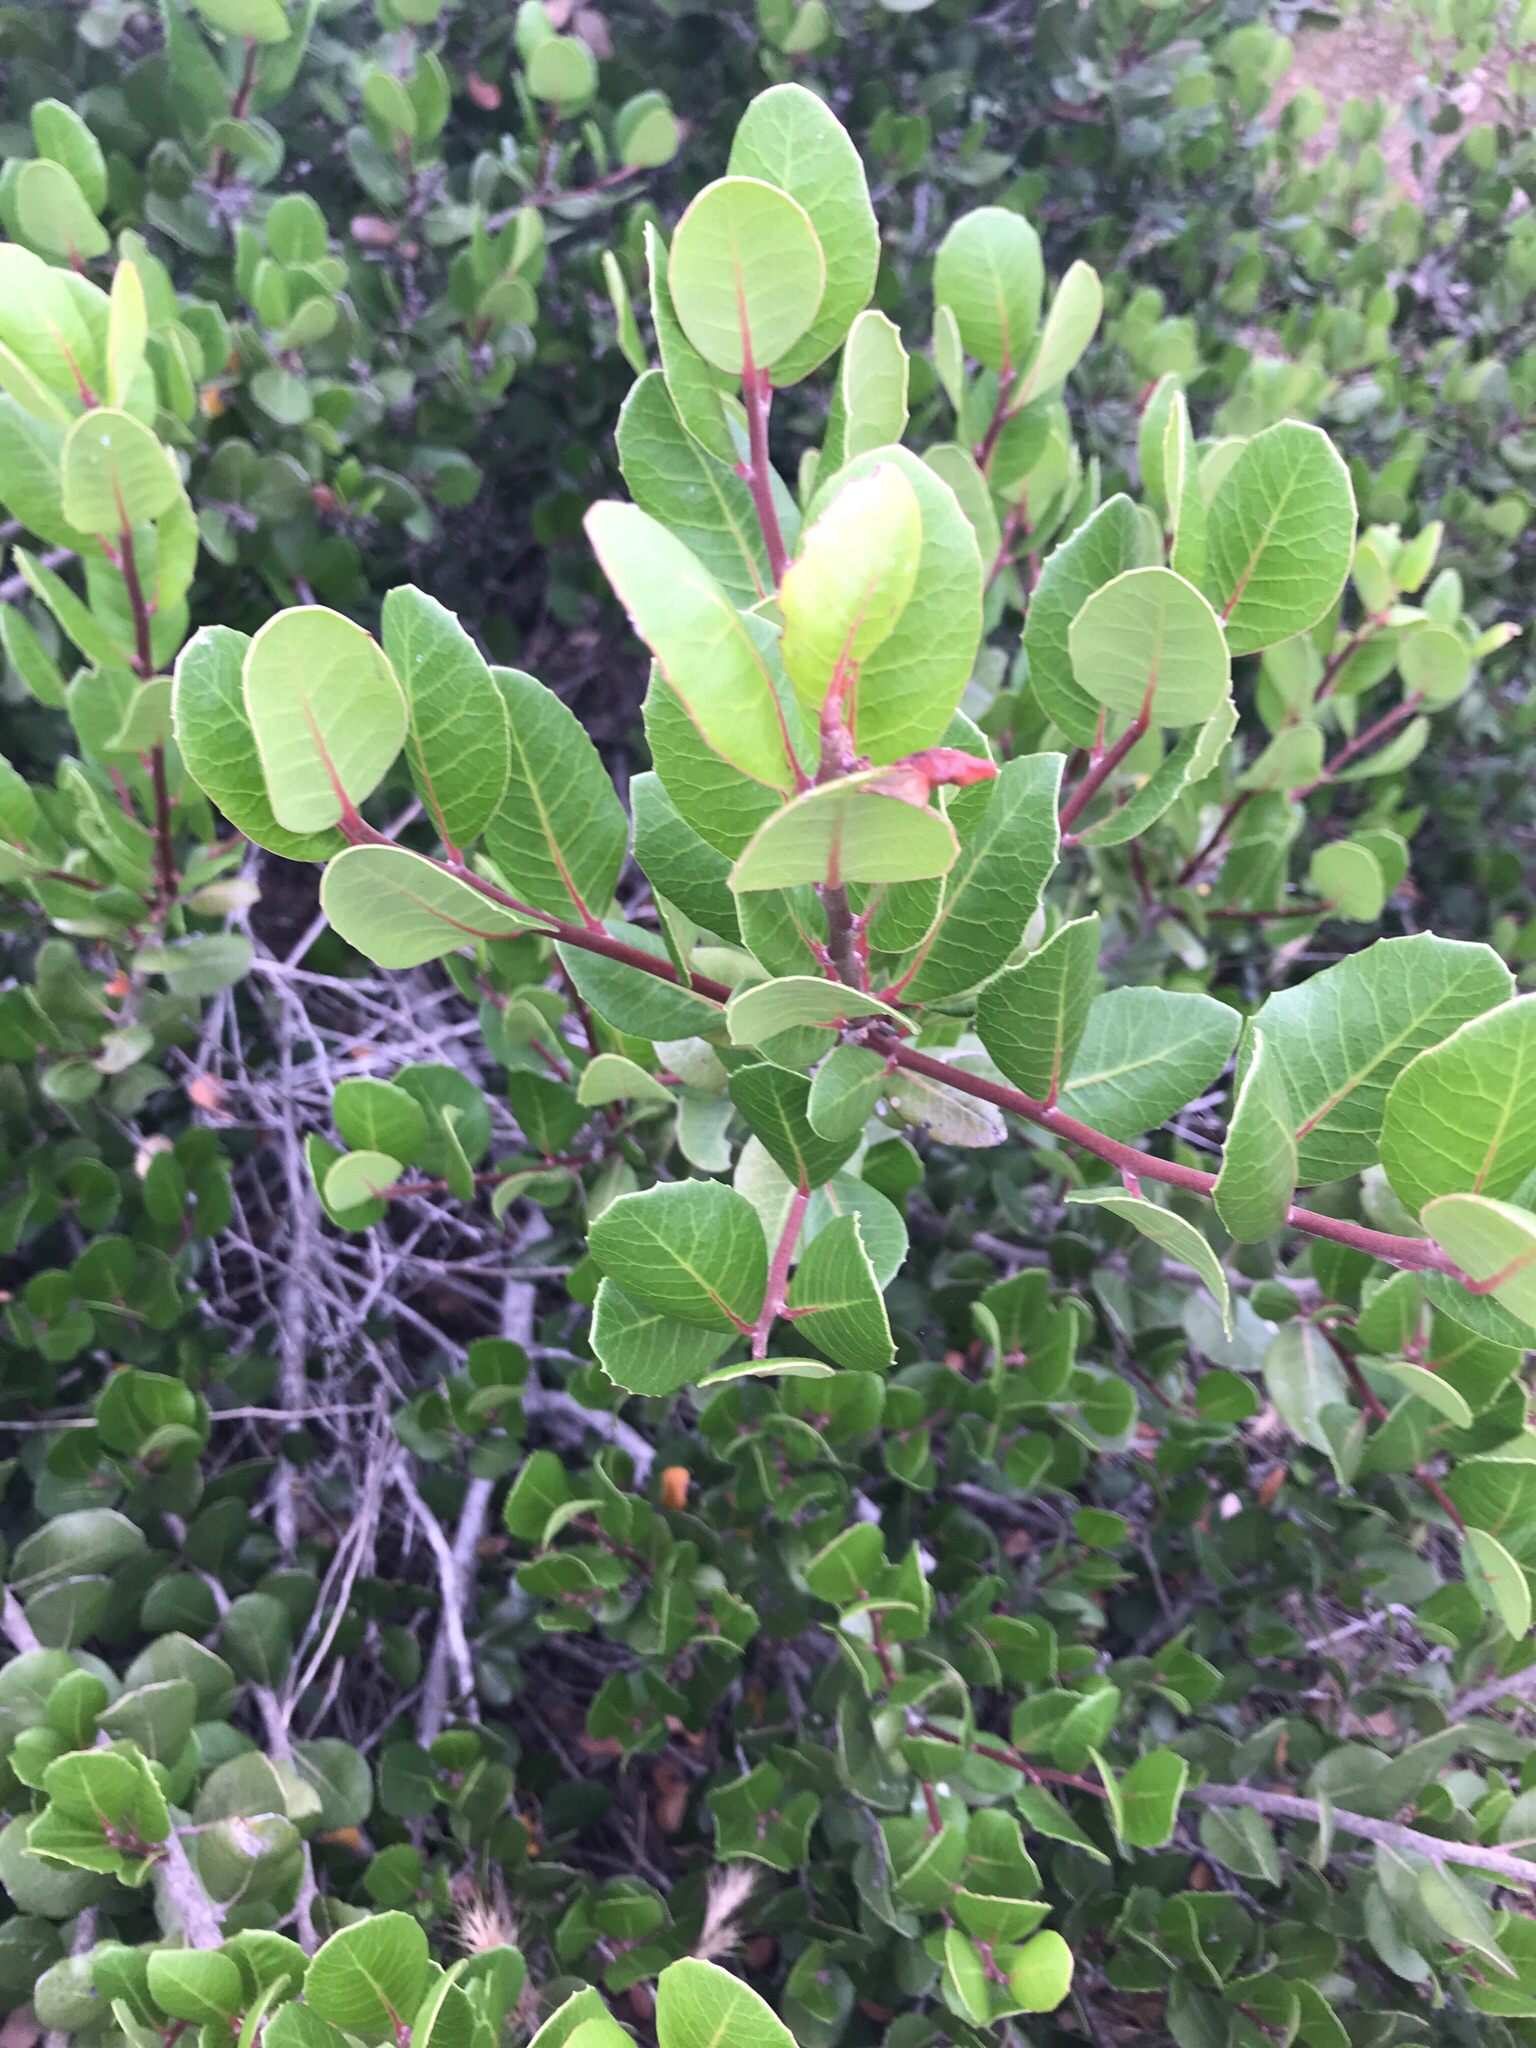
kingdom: Plantae
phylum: Tracheophyta
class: Magnoliopsida
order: Sapindales
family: Anacardiaceae
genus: Rhus
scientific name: Rhus integrifolia
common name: Lemonade sumac
